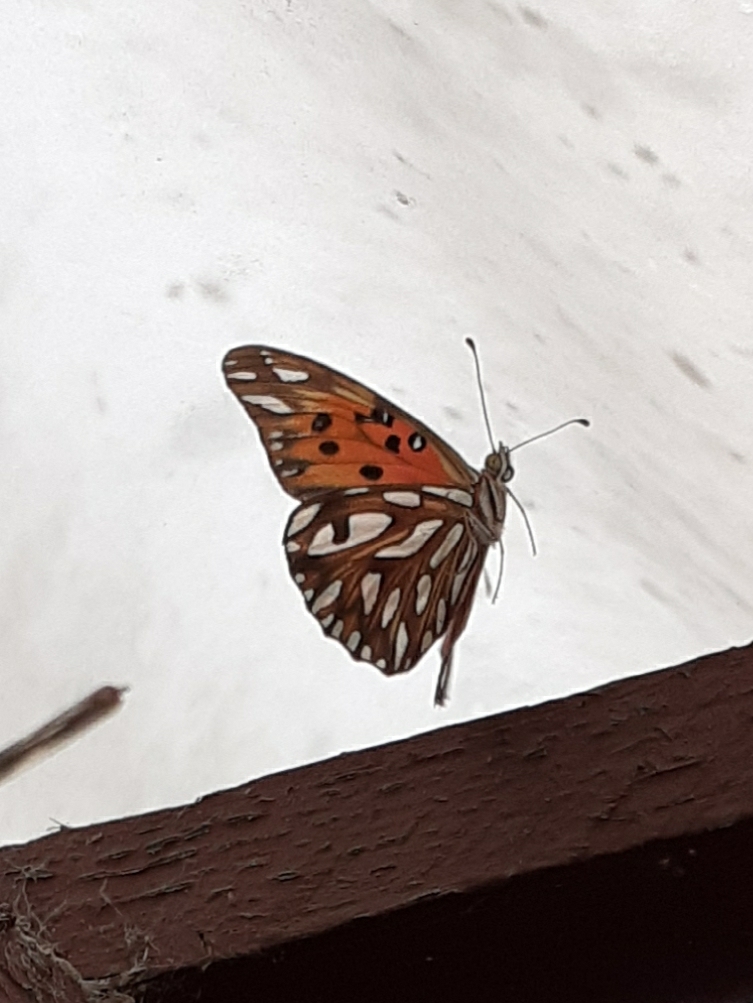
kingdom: Animalia
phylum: Arthropoda
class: Insecta
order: Lepidoptera
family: Nymphalidae
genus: Dione
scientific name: Dione vanillae
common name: Gulf fritillary
